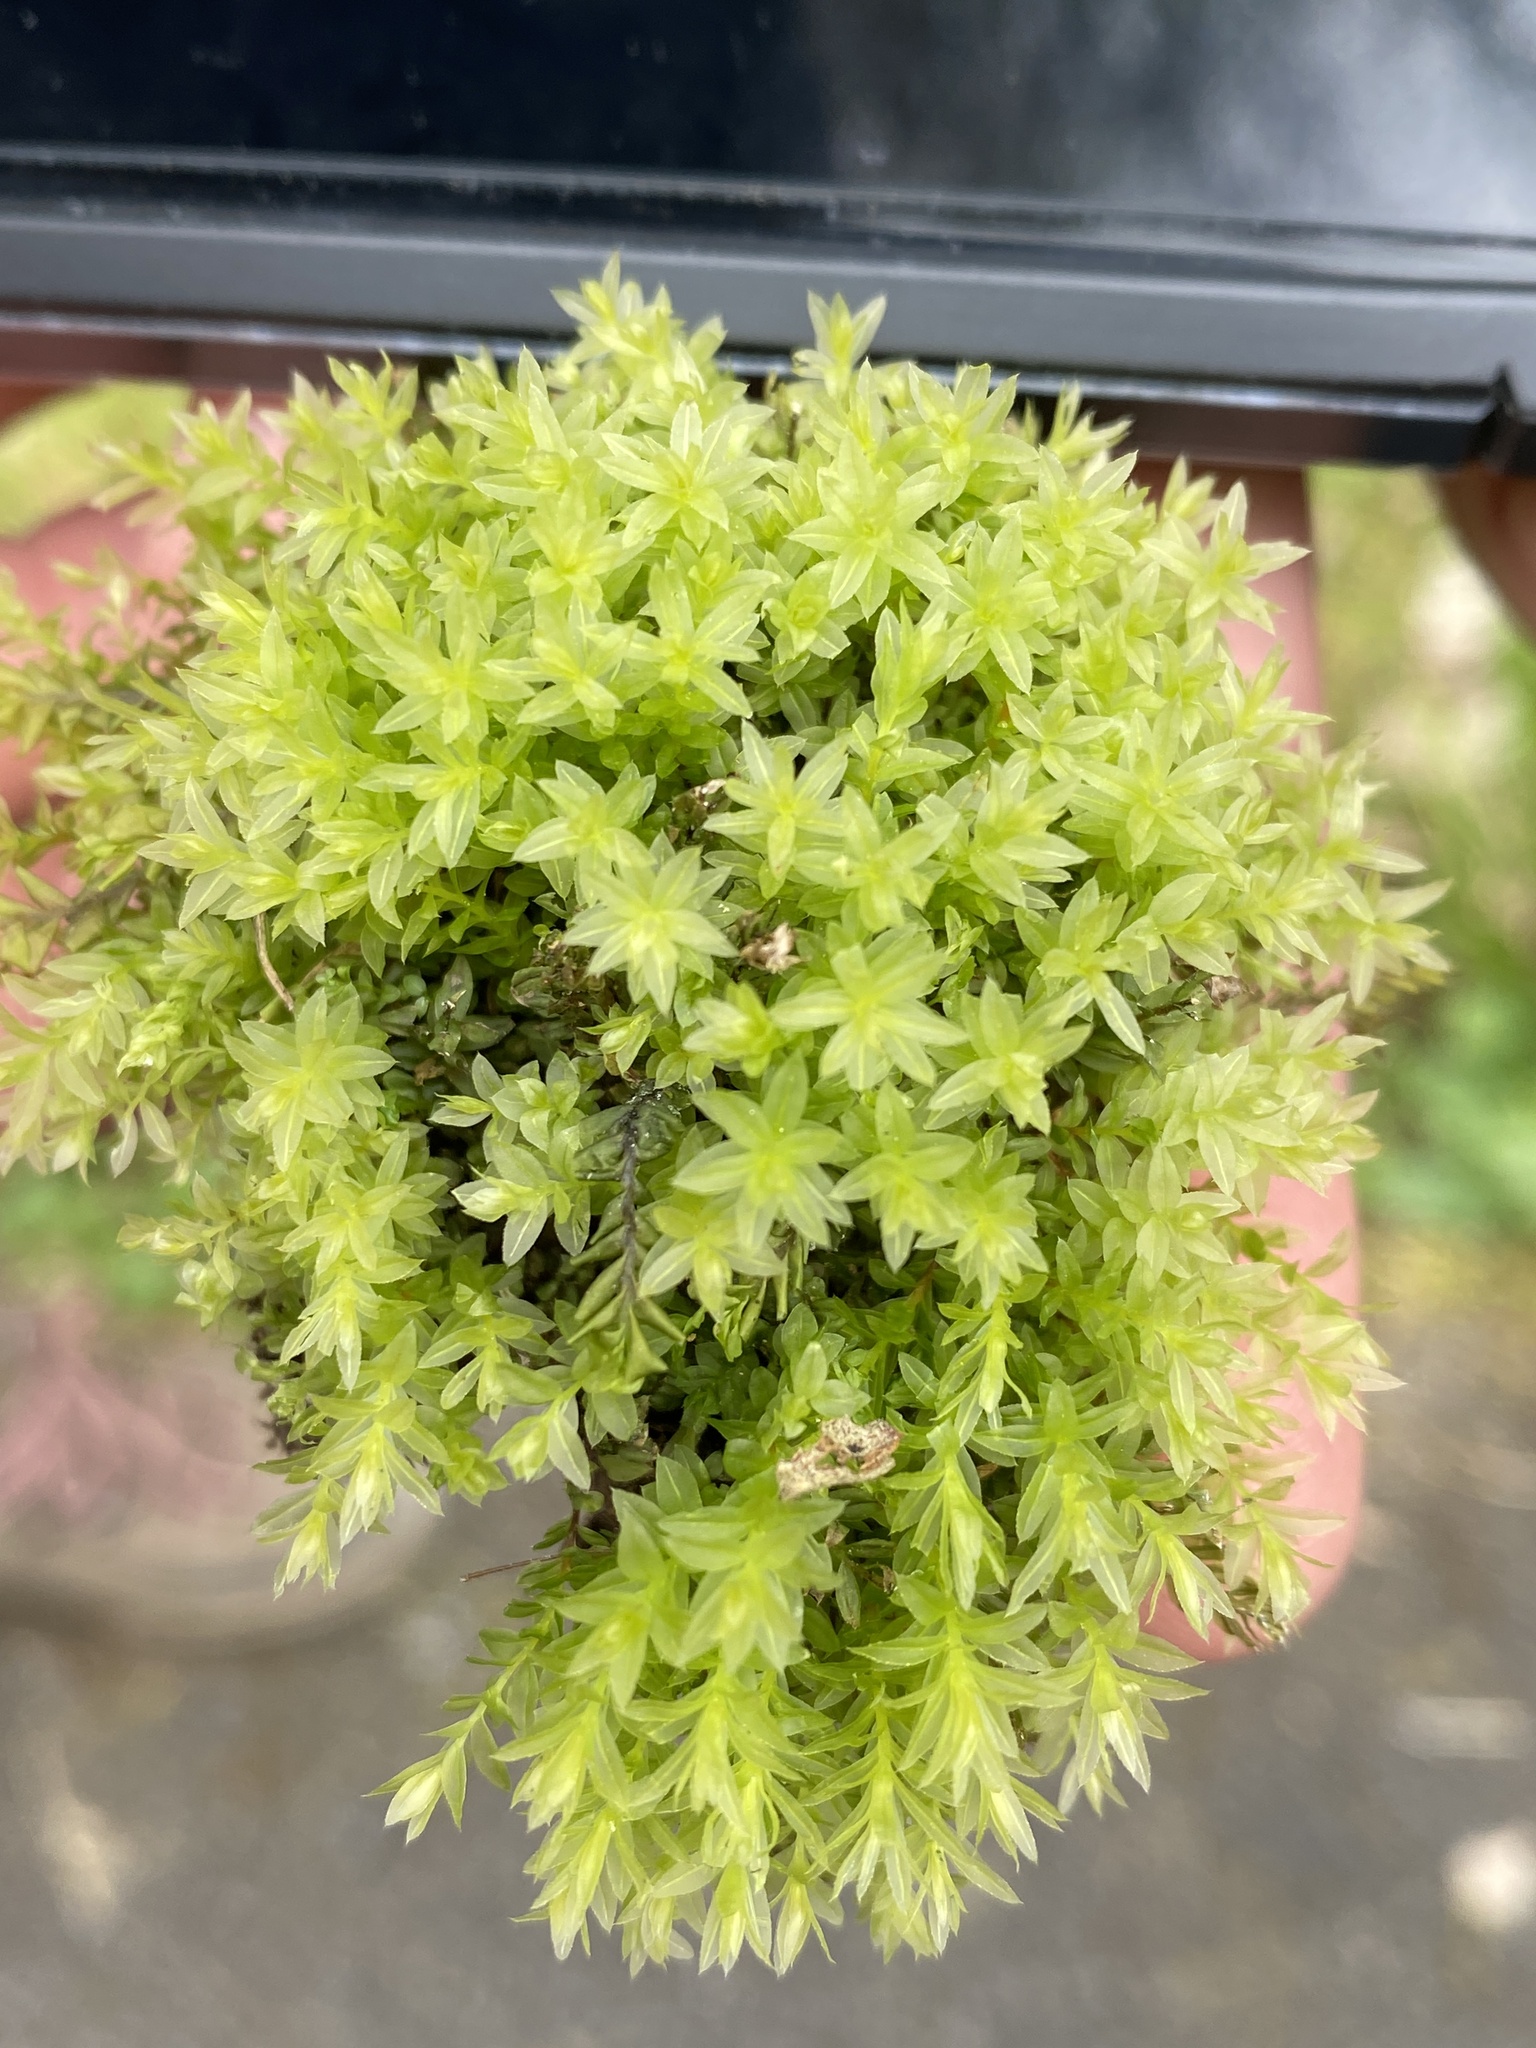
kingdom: Plantae
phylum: Bryophyta
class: Bryopsida
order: Bryales
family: Mniaceae
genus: Mnium
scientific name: Mnium hornum
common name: Swan's-neck leafy moss
